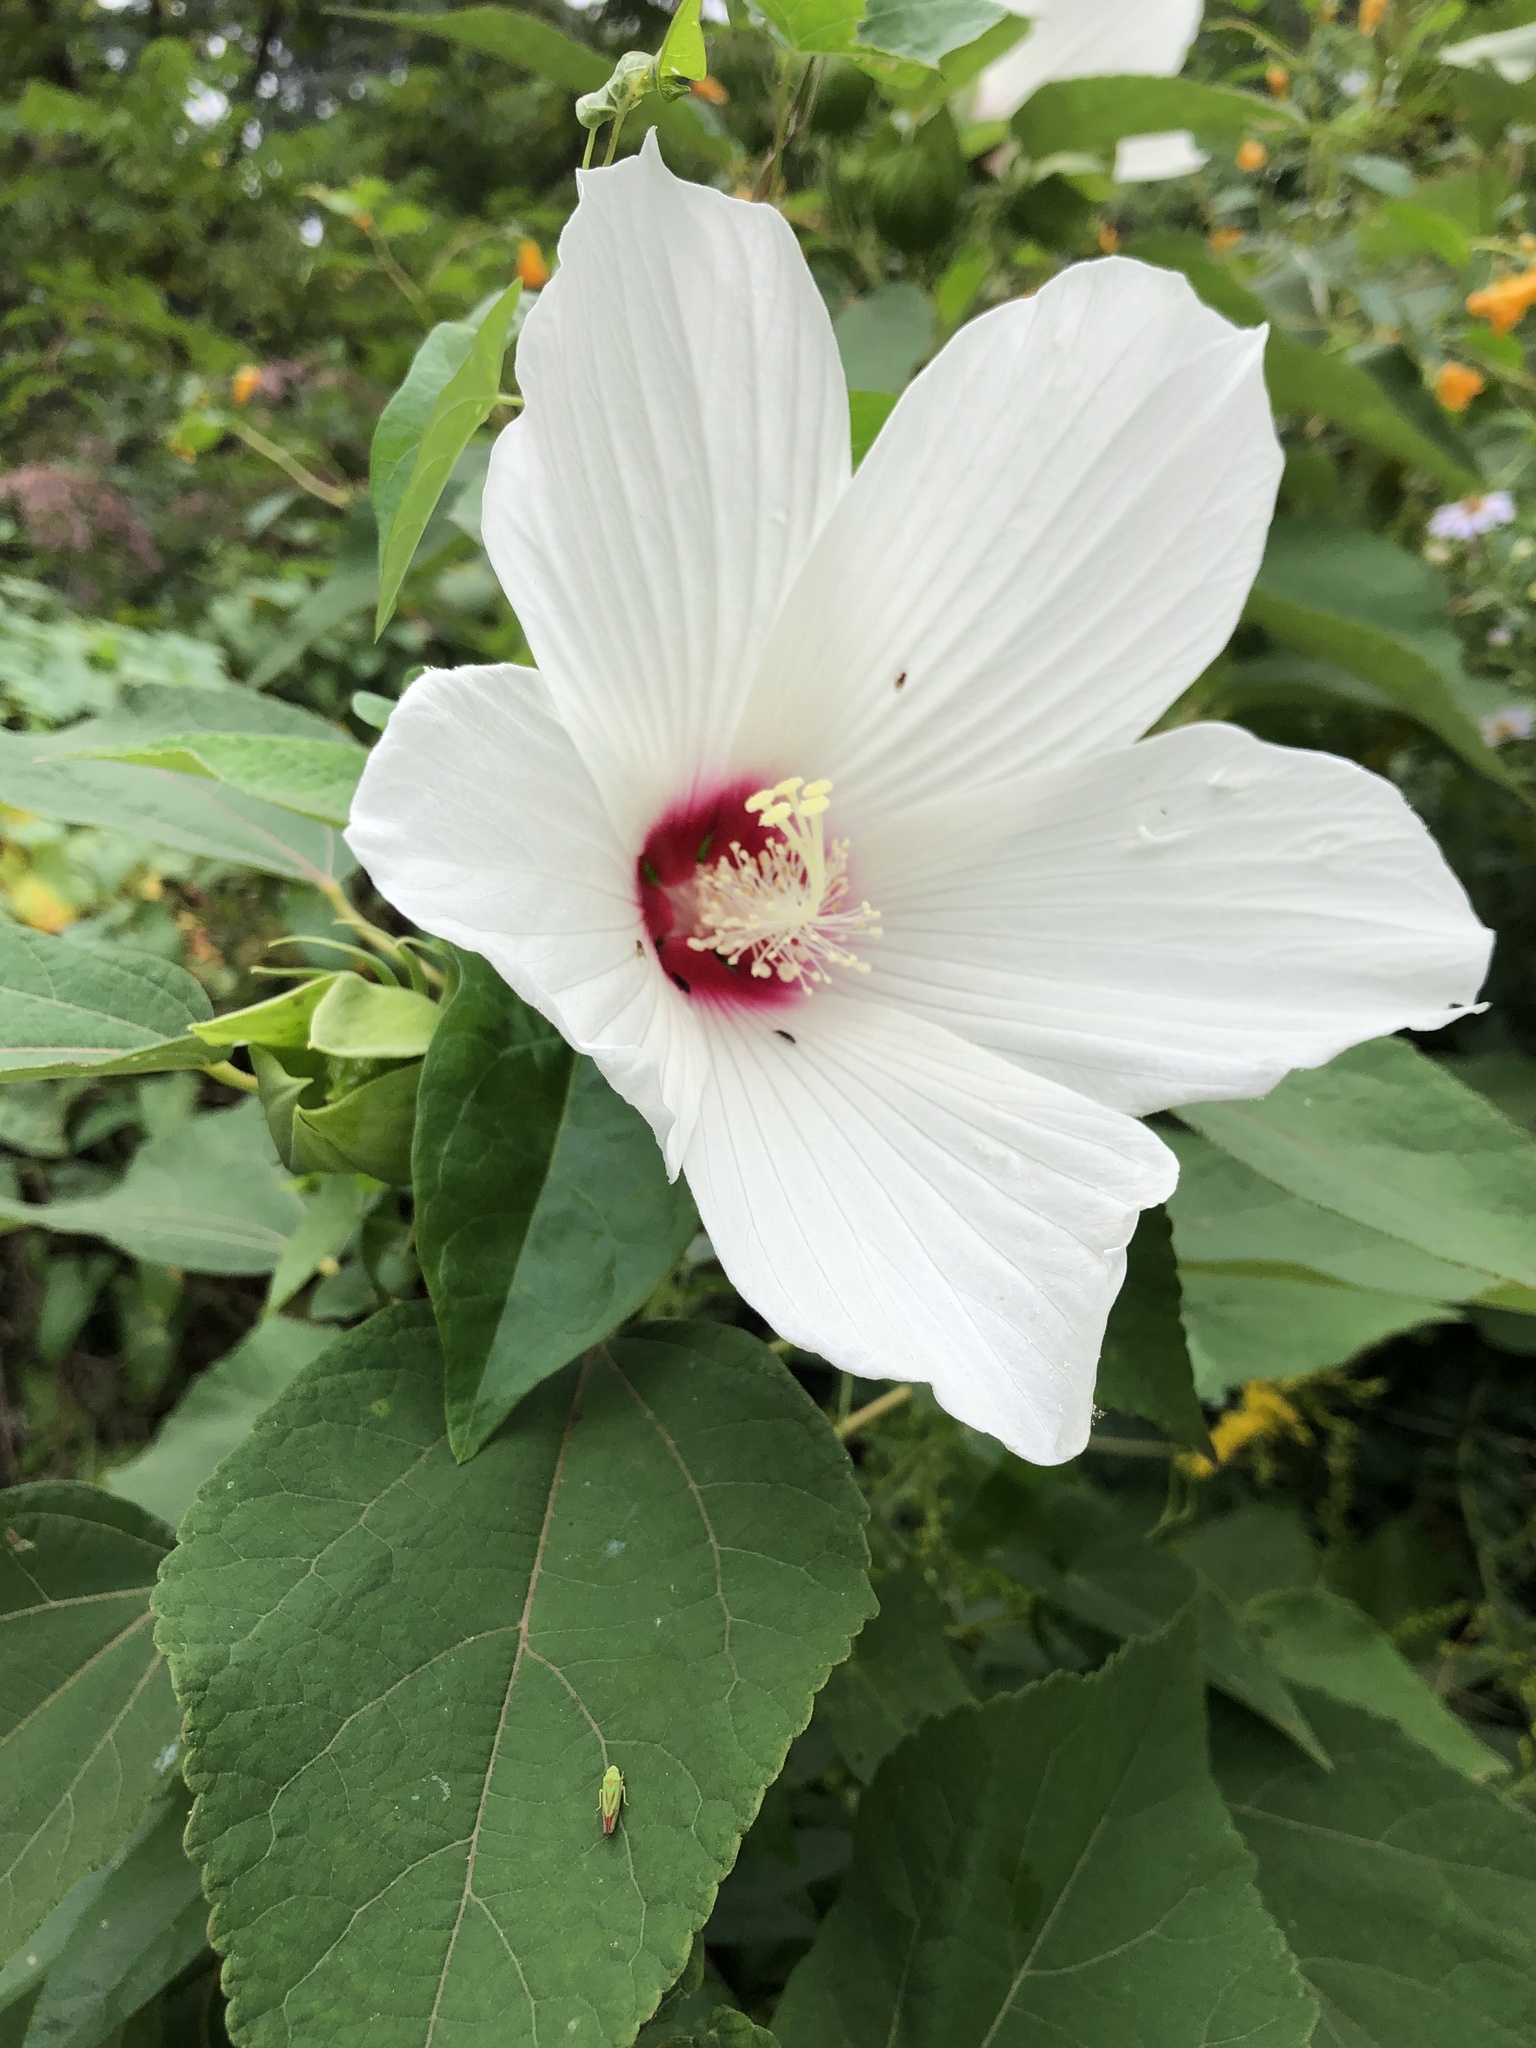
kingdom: Plantae
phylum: Tracheophyta
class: Magnoliopsida
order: Malvales
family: Malvaceae
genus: Hibiscus
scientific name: Hibiscus moscheutos
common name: Common rose-mallow
